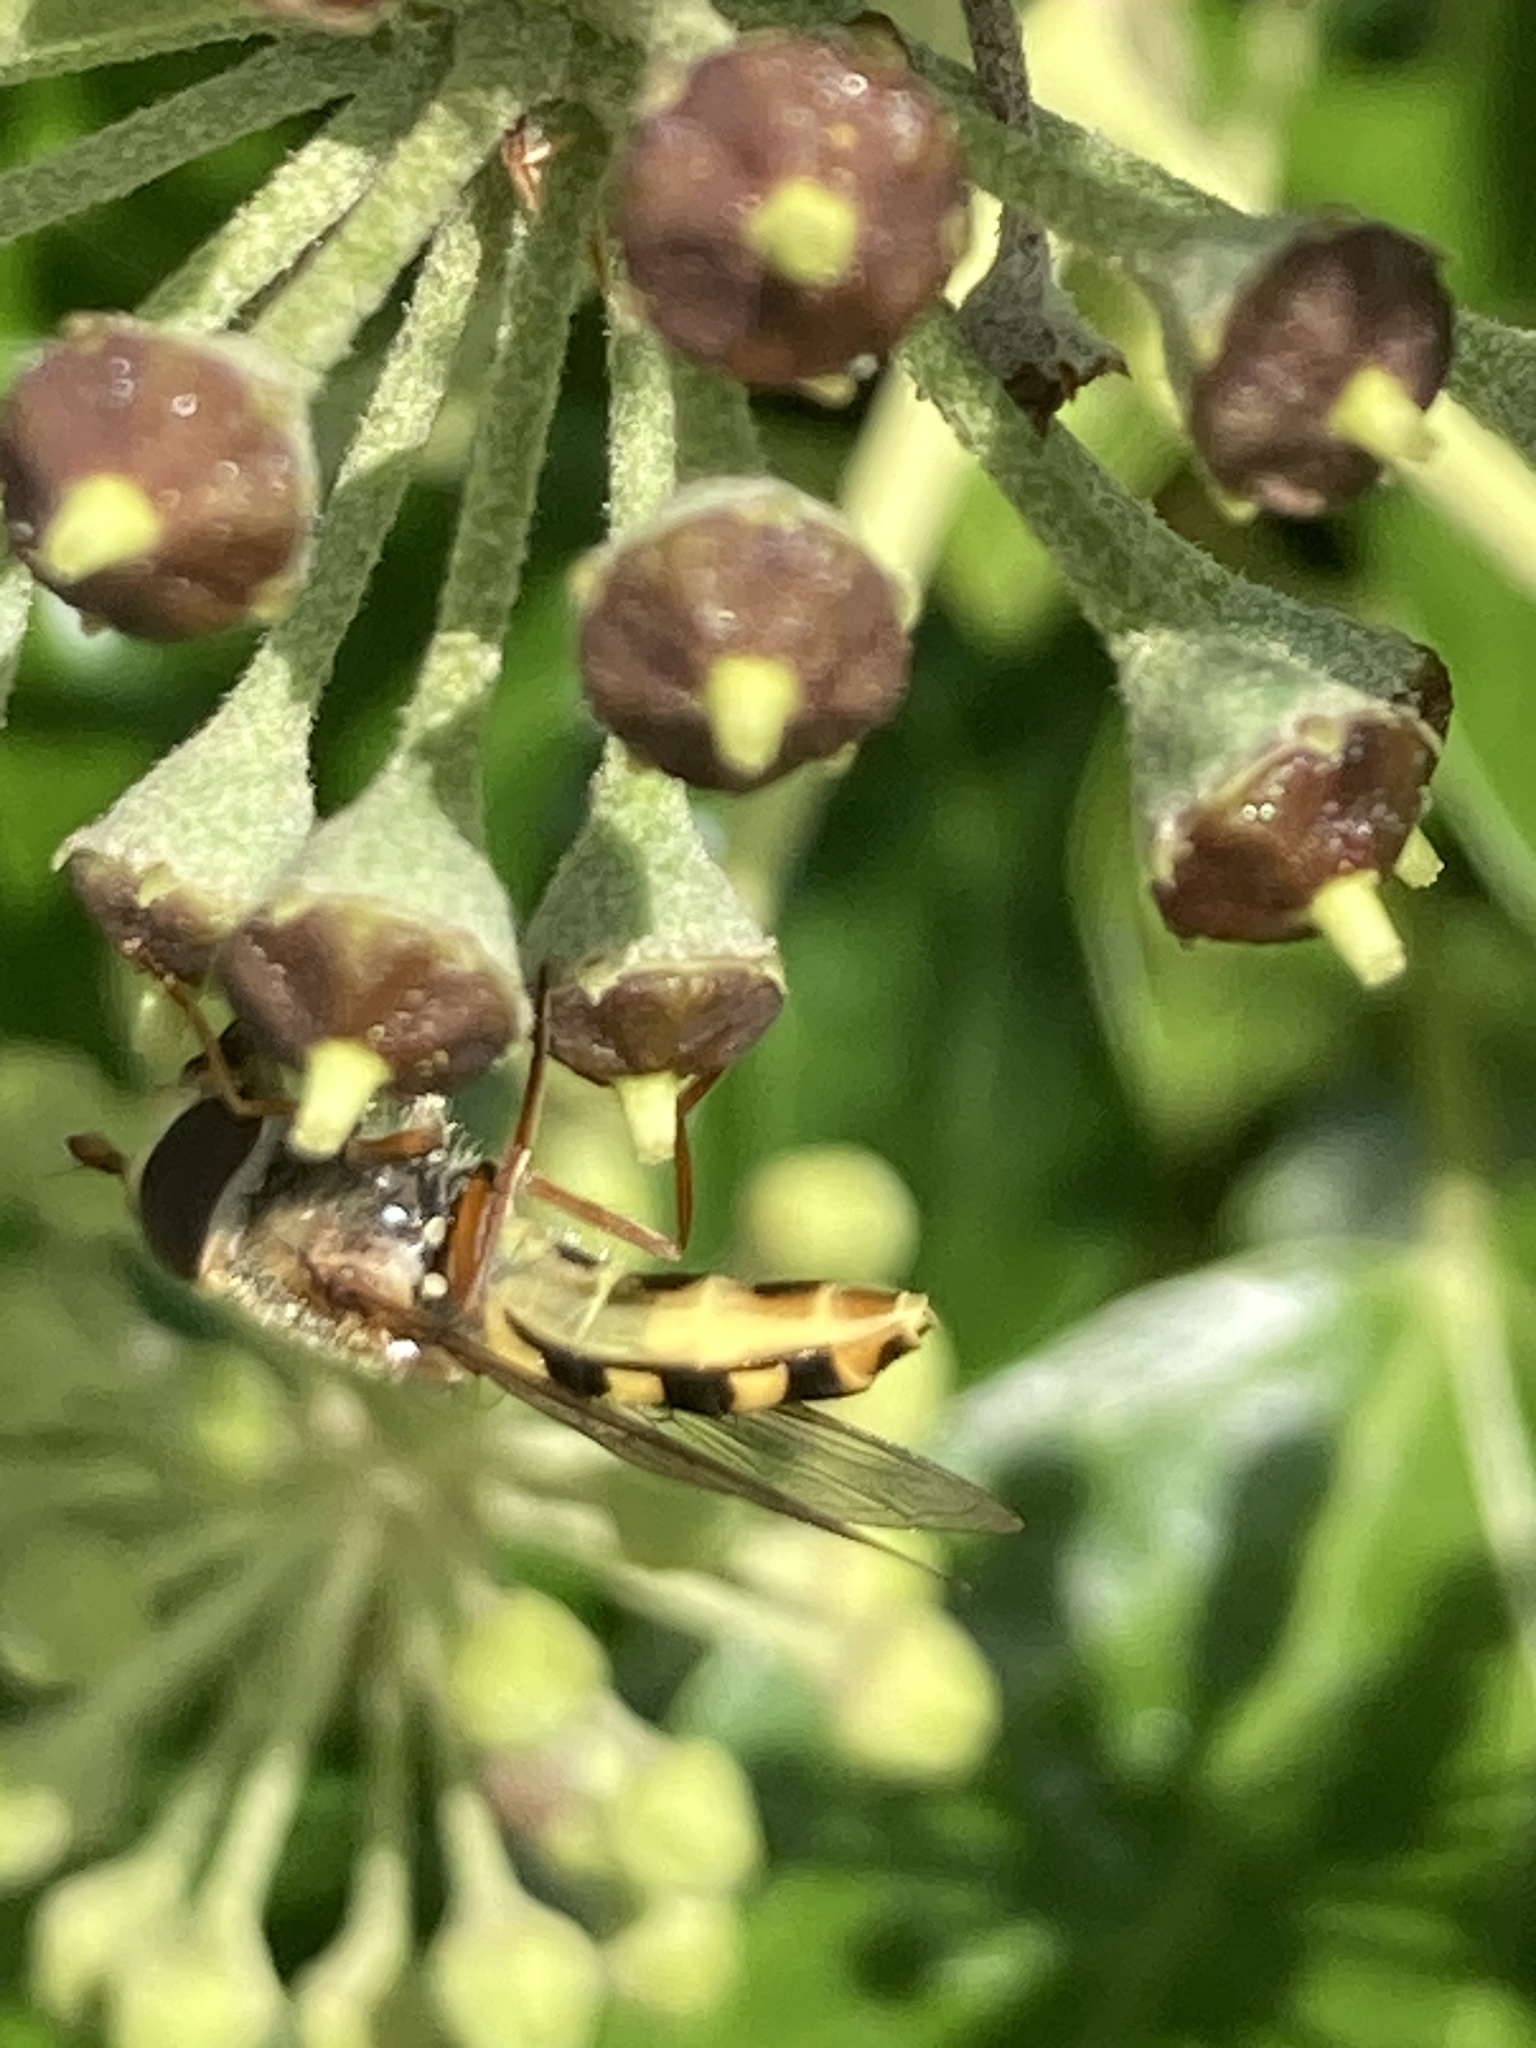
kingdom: Animalia
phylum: Arthropoda
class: Insecta
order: Diptera
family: Syrphidae
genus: Eupeodes
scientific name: Eupeodes luniger
